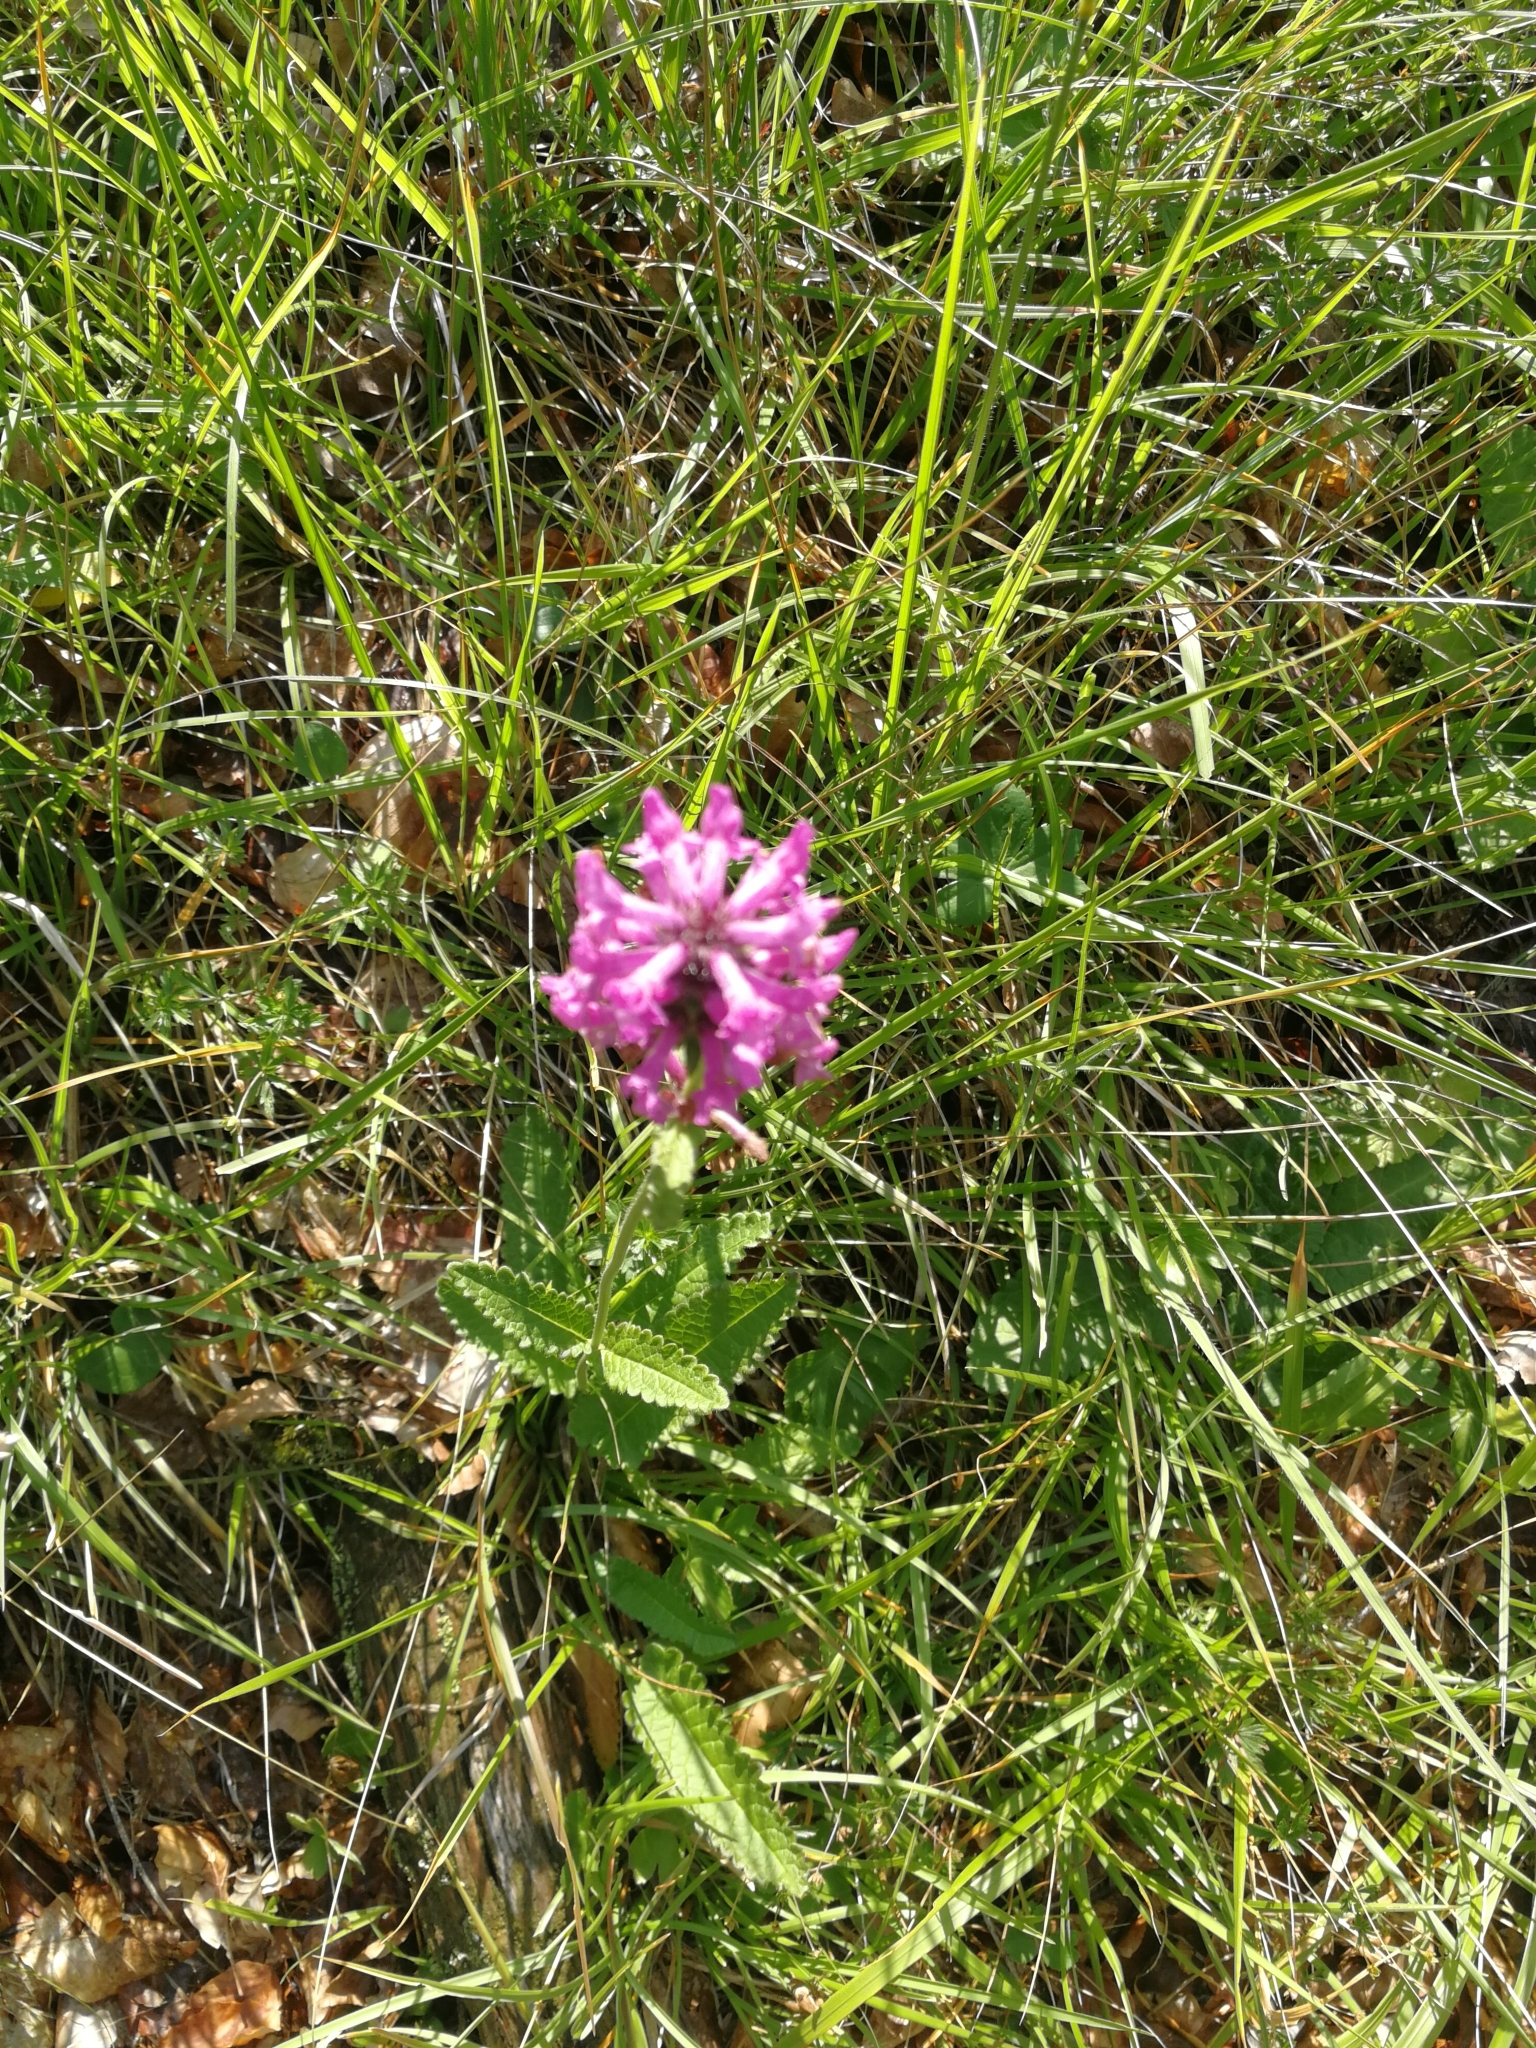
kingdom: Plantae
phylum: Tracheophyta
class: Magnoliopsida
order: Lamiales
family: Lamiaceae
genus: Betonica
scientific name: Betonica officinalis
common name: Bishop's-wort
